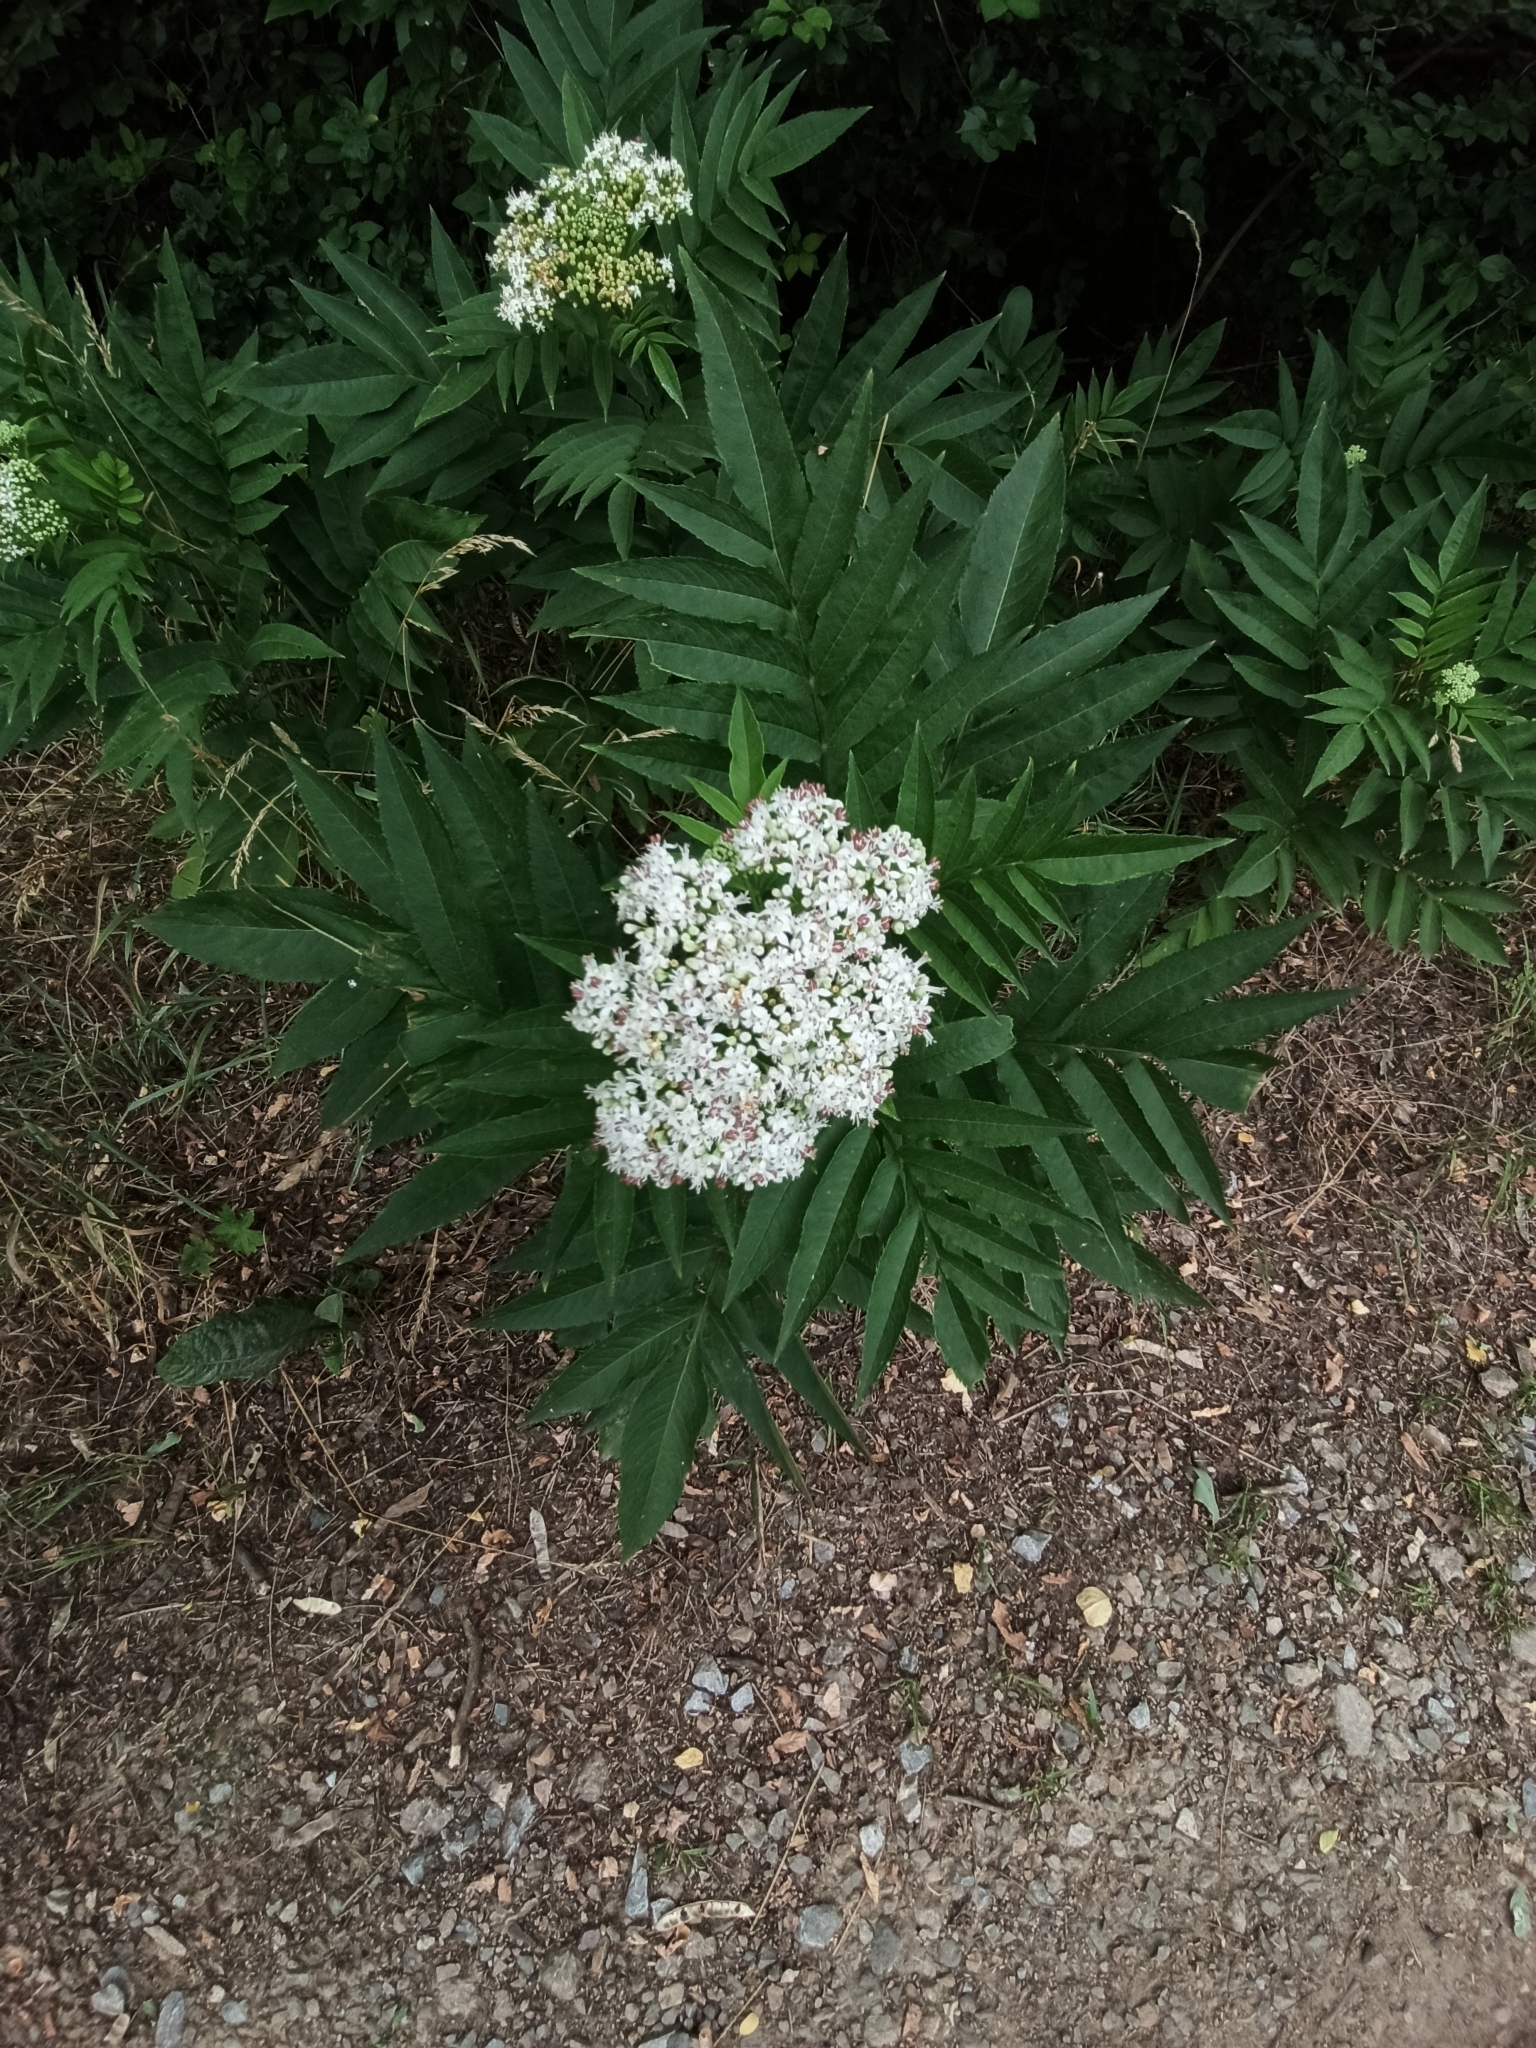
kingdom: Plantae
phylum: Tracheophyta
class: Magnoliopsida
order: Dipsacales
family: Viburnaceae
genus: Sambucus
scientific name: Sambucus ebulus
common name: Dwarf elder
